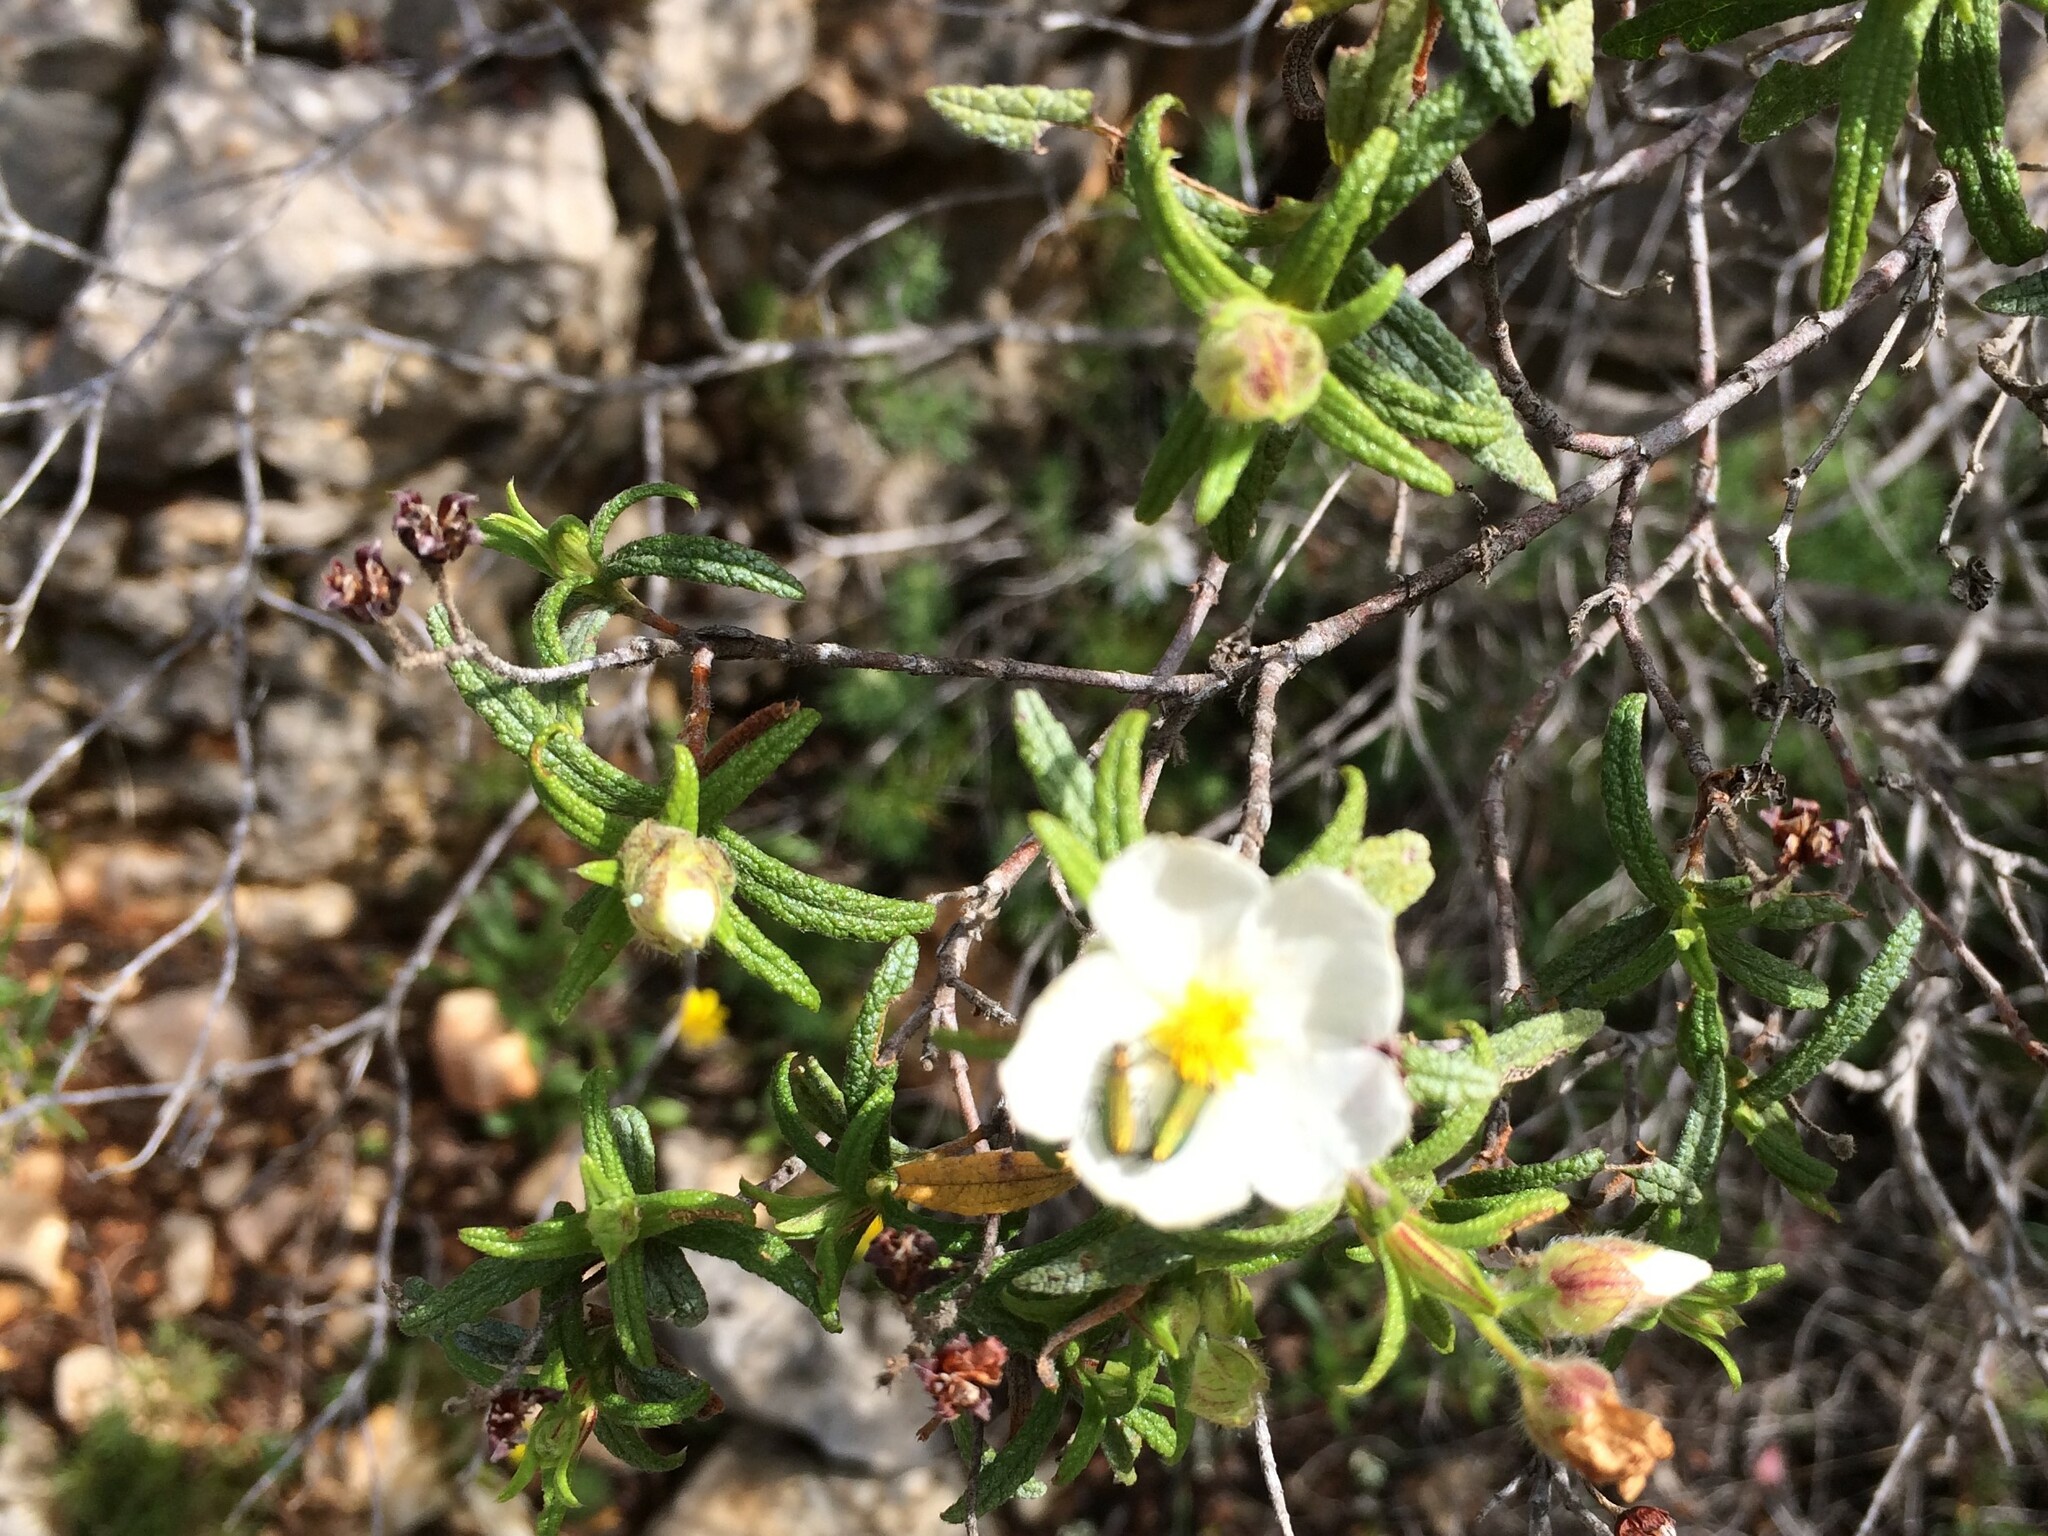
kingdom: Plantae
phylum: Tracheophyta
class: Magnoliopsida
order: Malvales
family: Cistaceae
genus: Cistus
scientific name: Cistus monspeliensis
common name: Montpelier cistus
